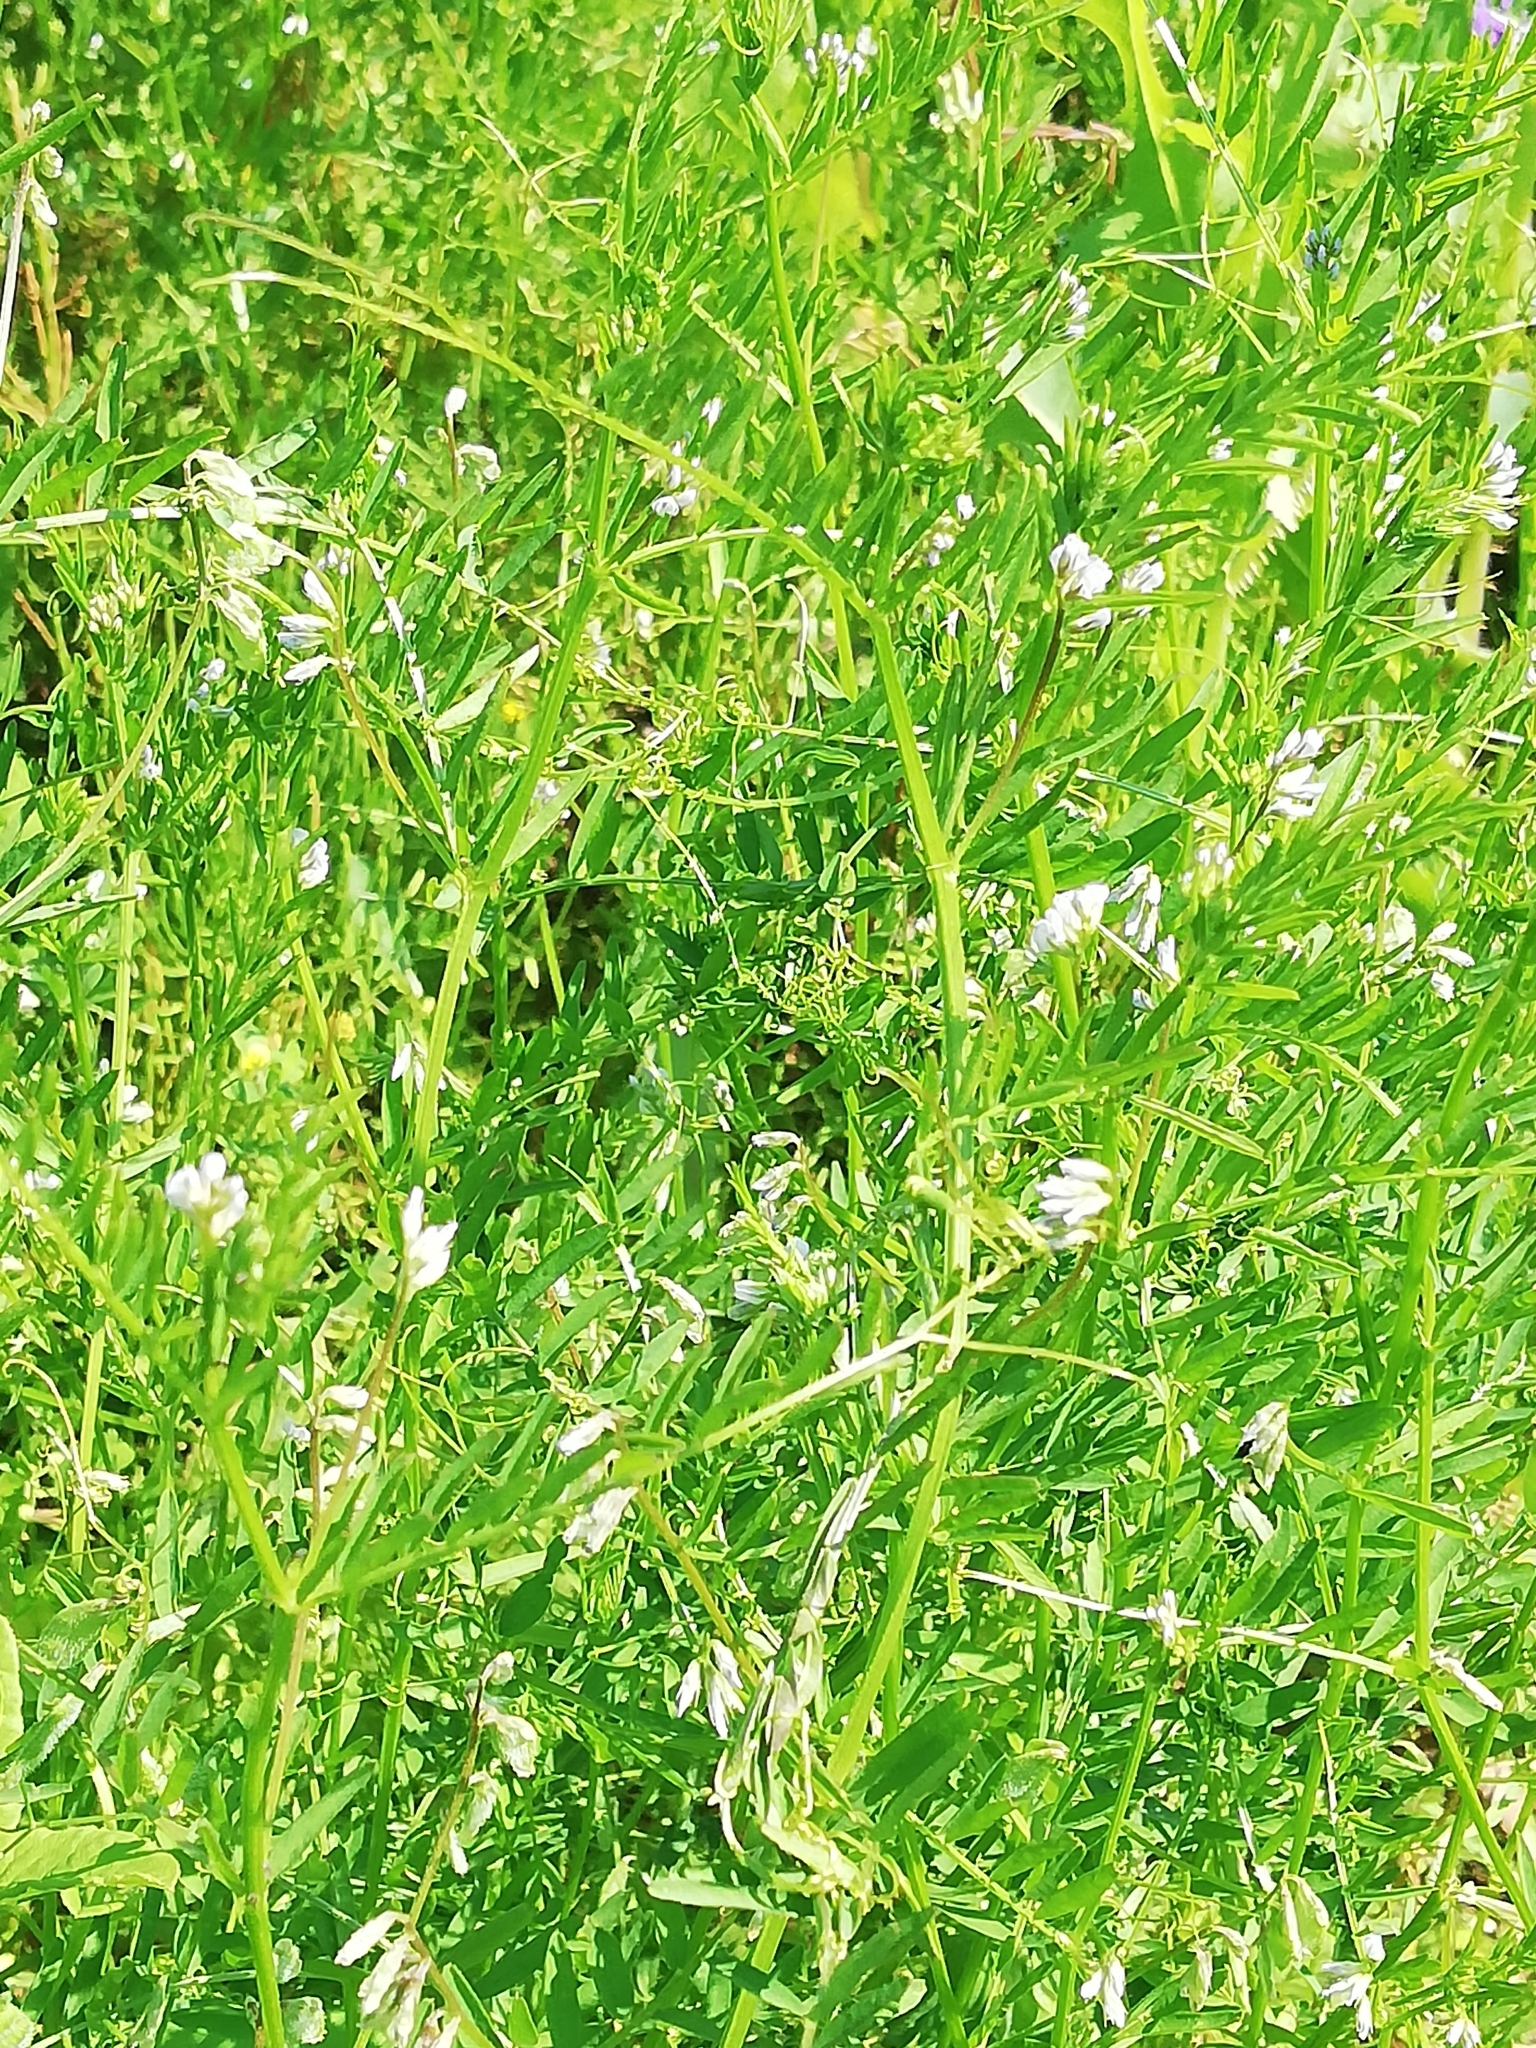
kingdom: Plantae
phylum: Tracheophyta
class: Magnoliopsida
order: Fabales
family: Fabaceae
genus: Vicia
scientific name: Vicia hirsuta
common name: Tiny vetch
